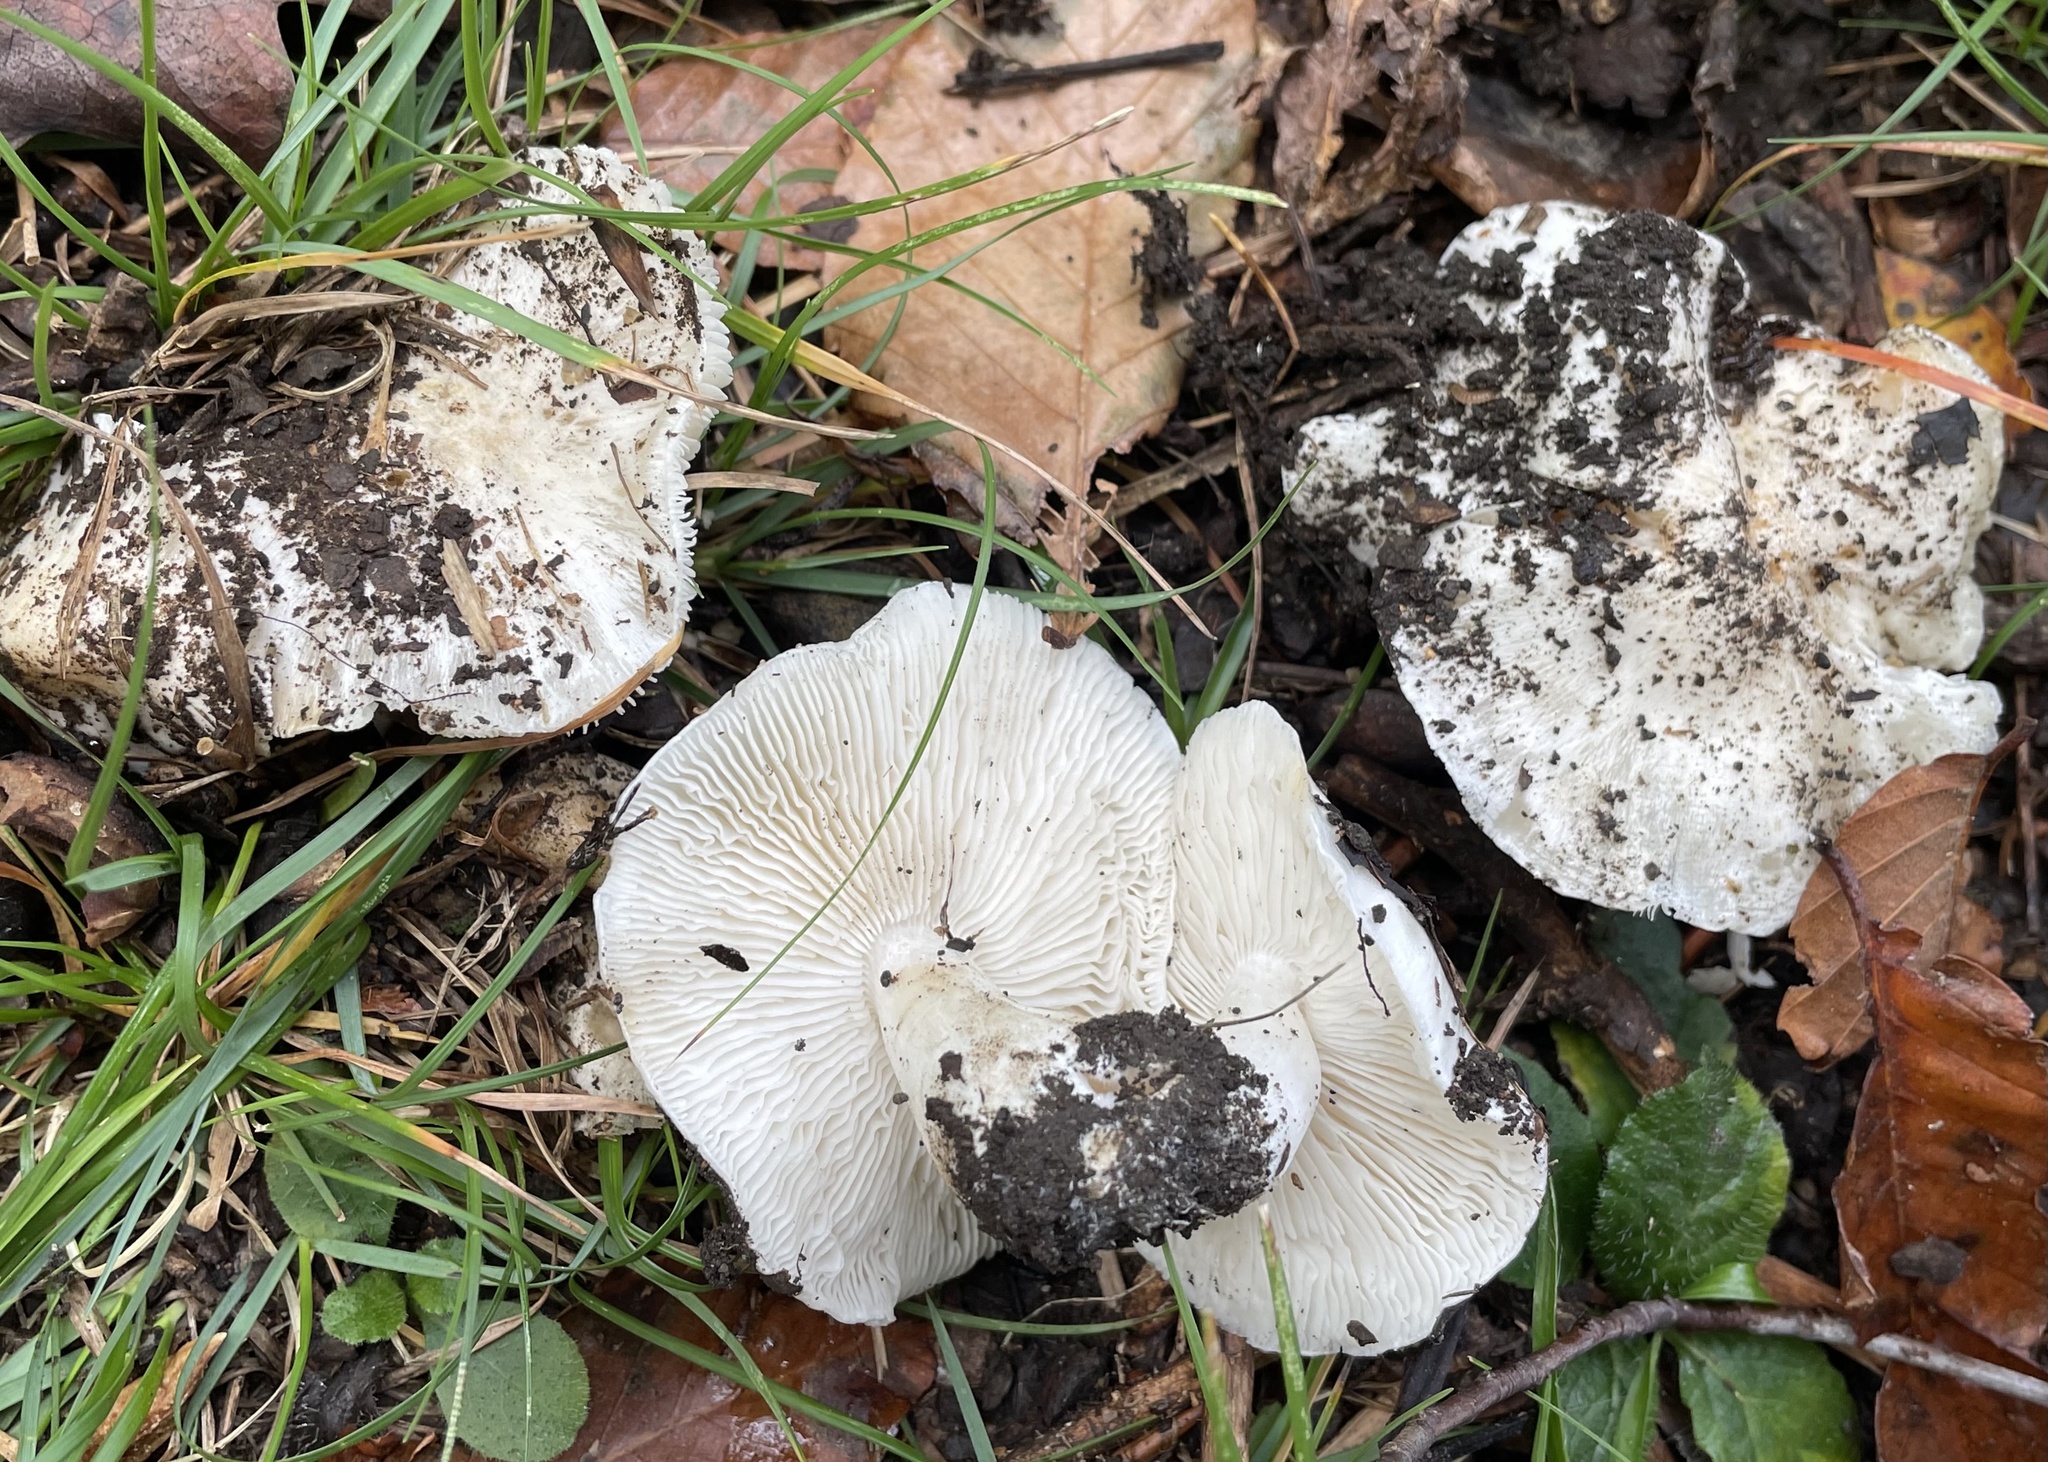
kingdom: Fungi
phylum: Basidiomycota
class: Agaricomycetes
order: Agaricales
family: Tricholomataceae
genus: Tricholoma
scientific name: Tricholoma subresplendens
